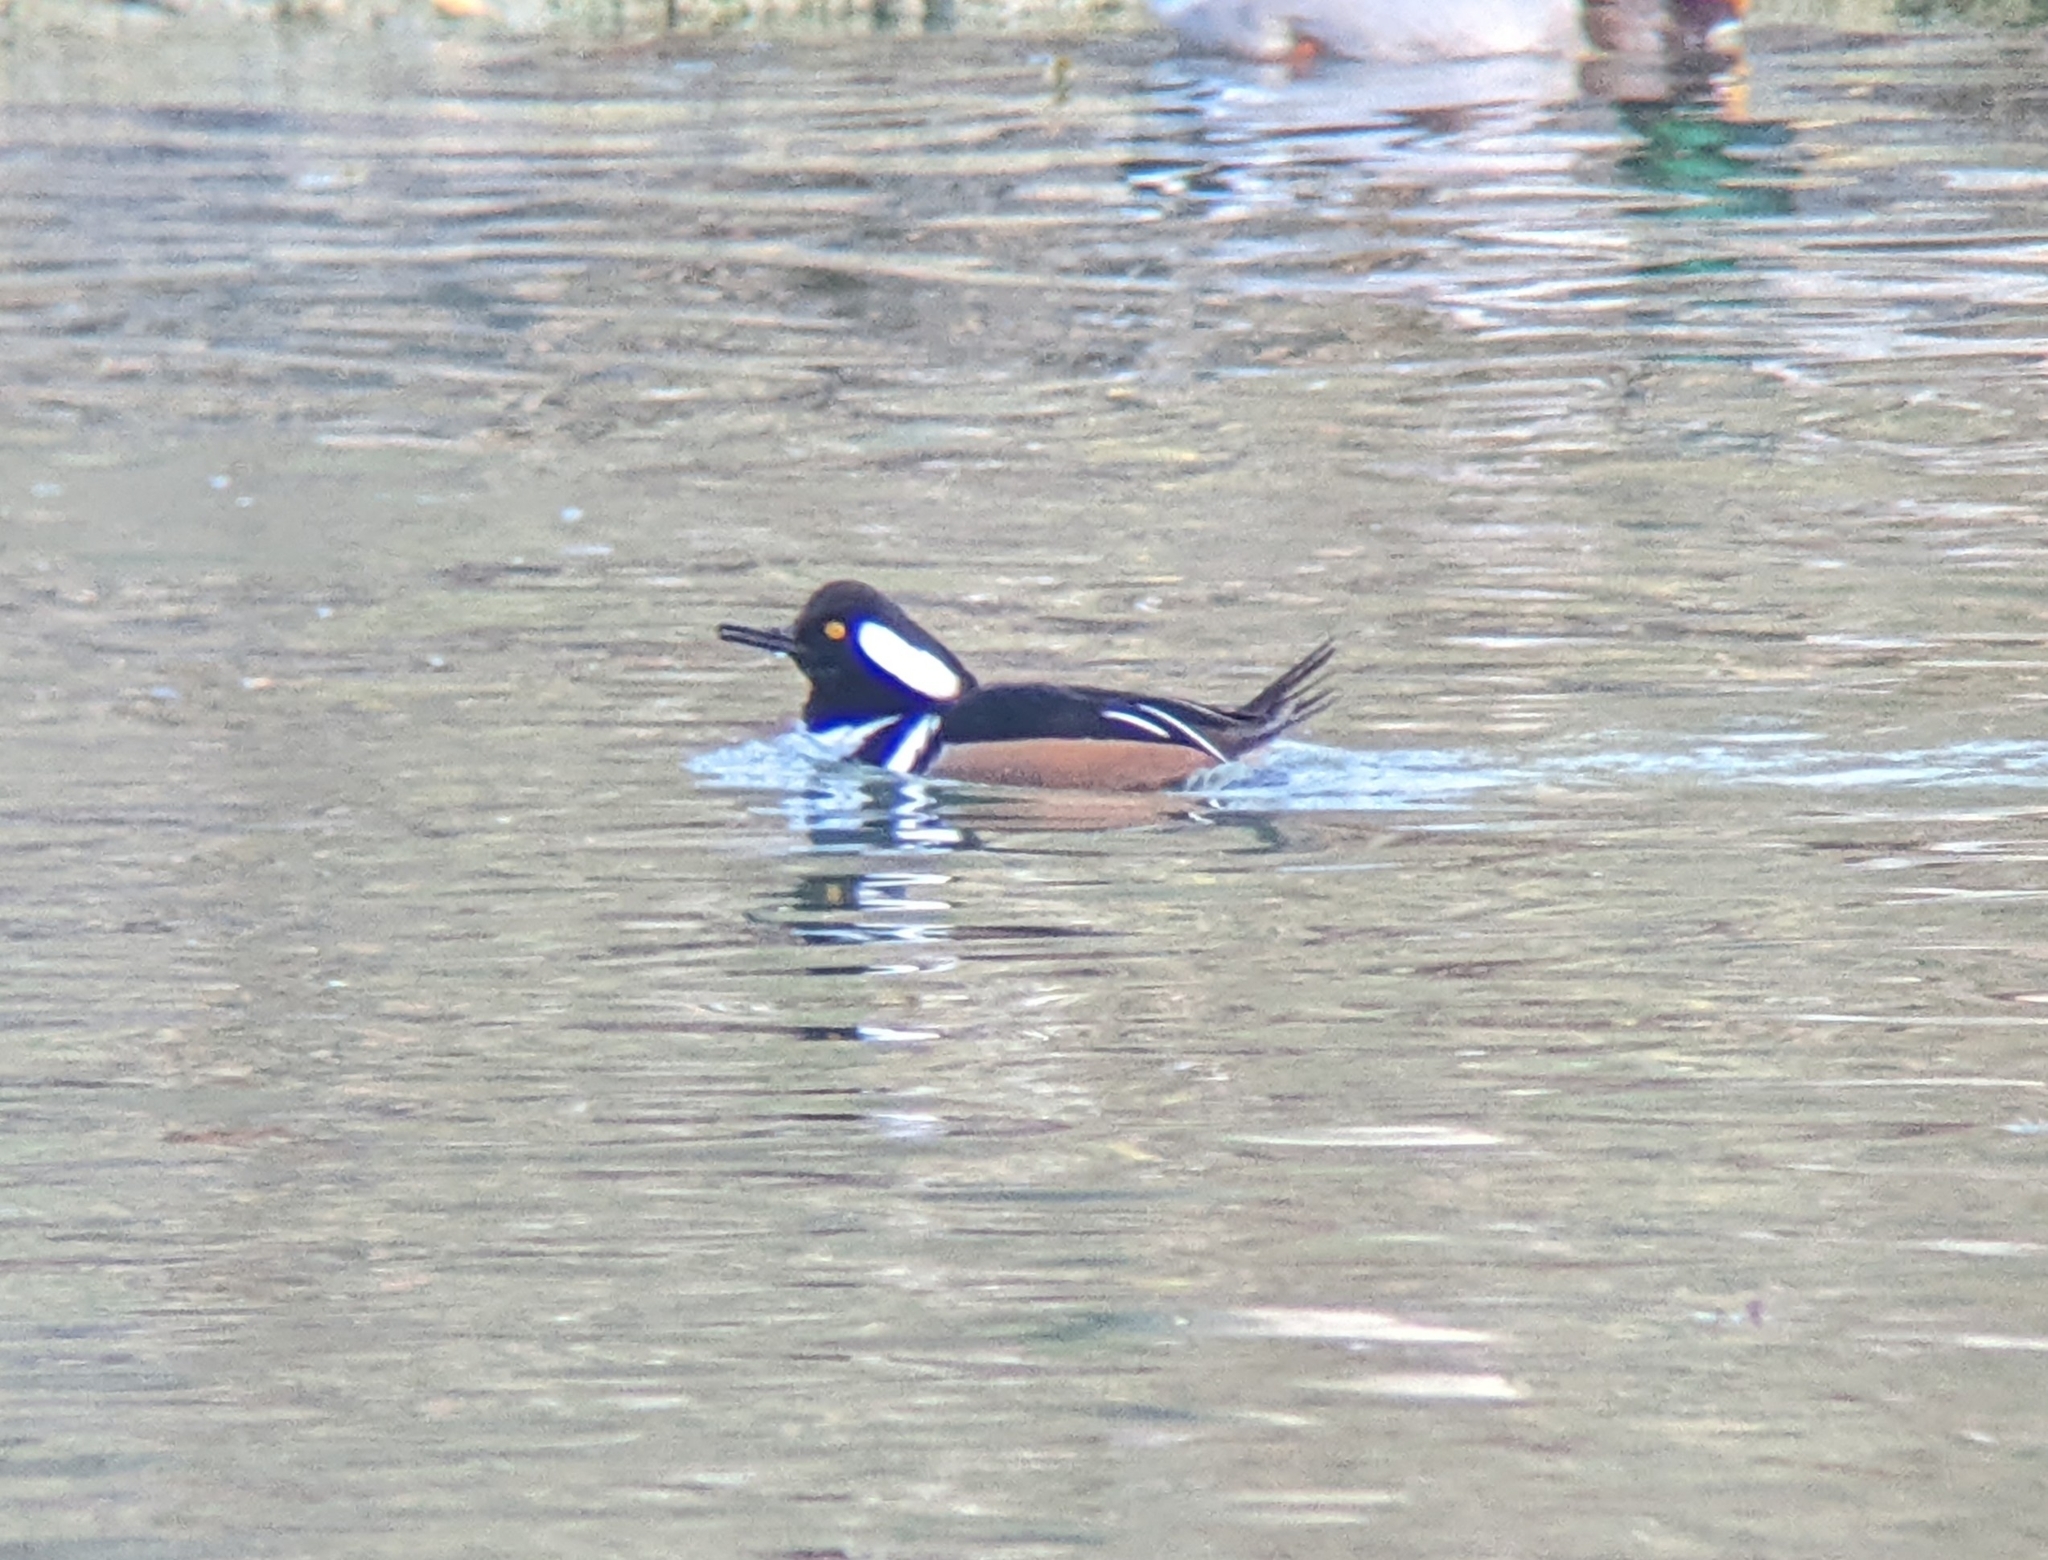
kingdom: Animalia
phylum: Chordata
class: Aves
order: Anseriformes
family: Anatidae
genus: Lophodytes
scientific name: Lophodytes cucullatus
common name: Hooded merganser
